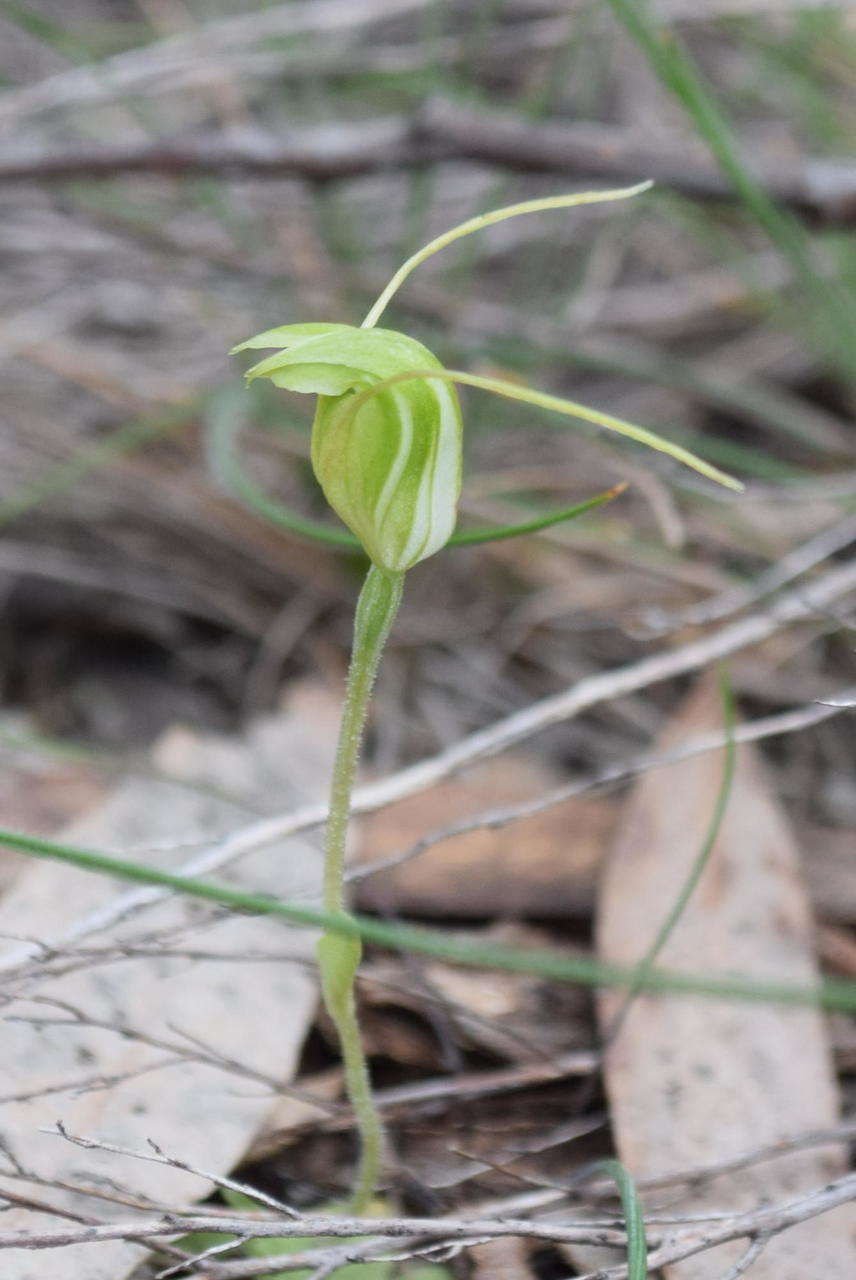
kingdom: Plantae
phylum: Tracheophyta
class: Liliopsida
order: Asparagales
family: Orchidaceae
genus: Pterostylis
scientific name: Pterostylis nana
